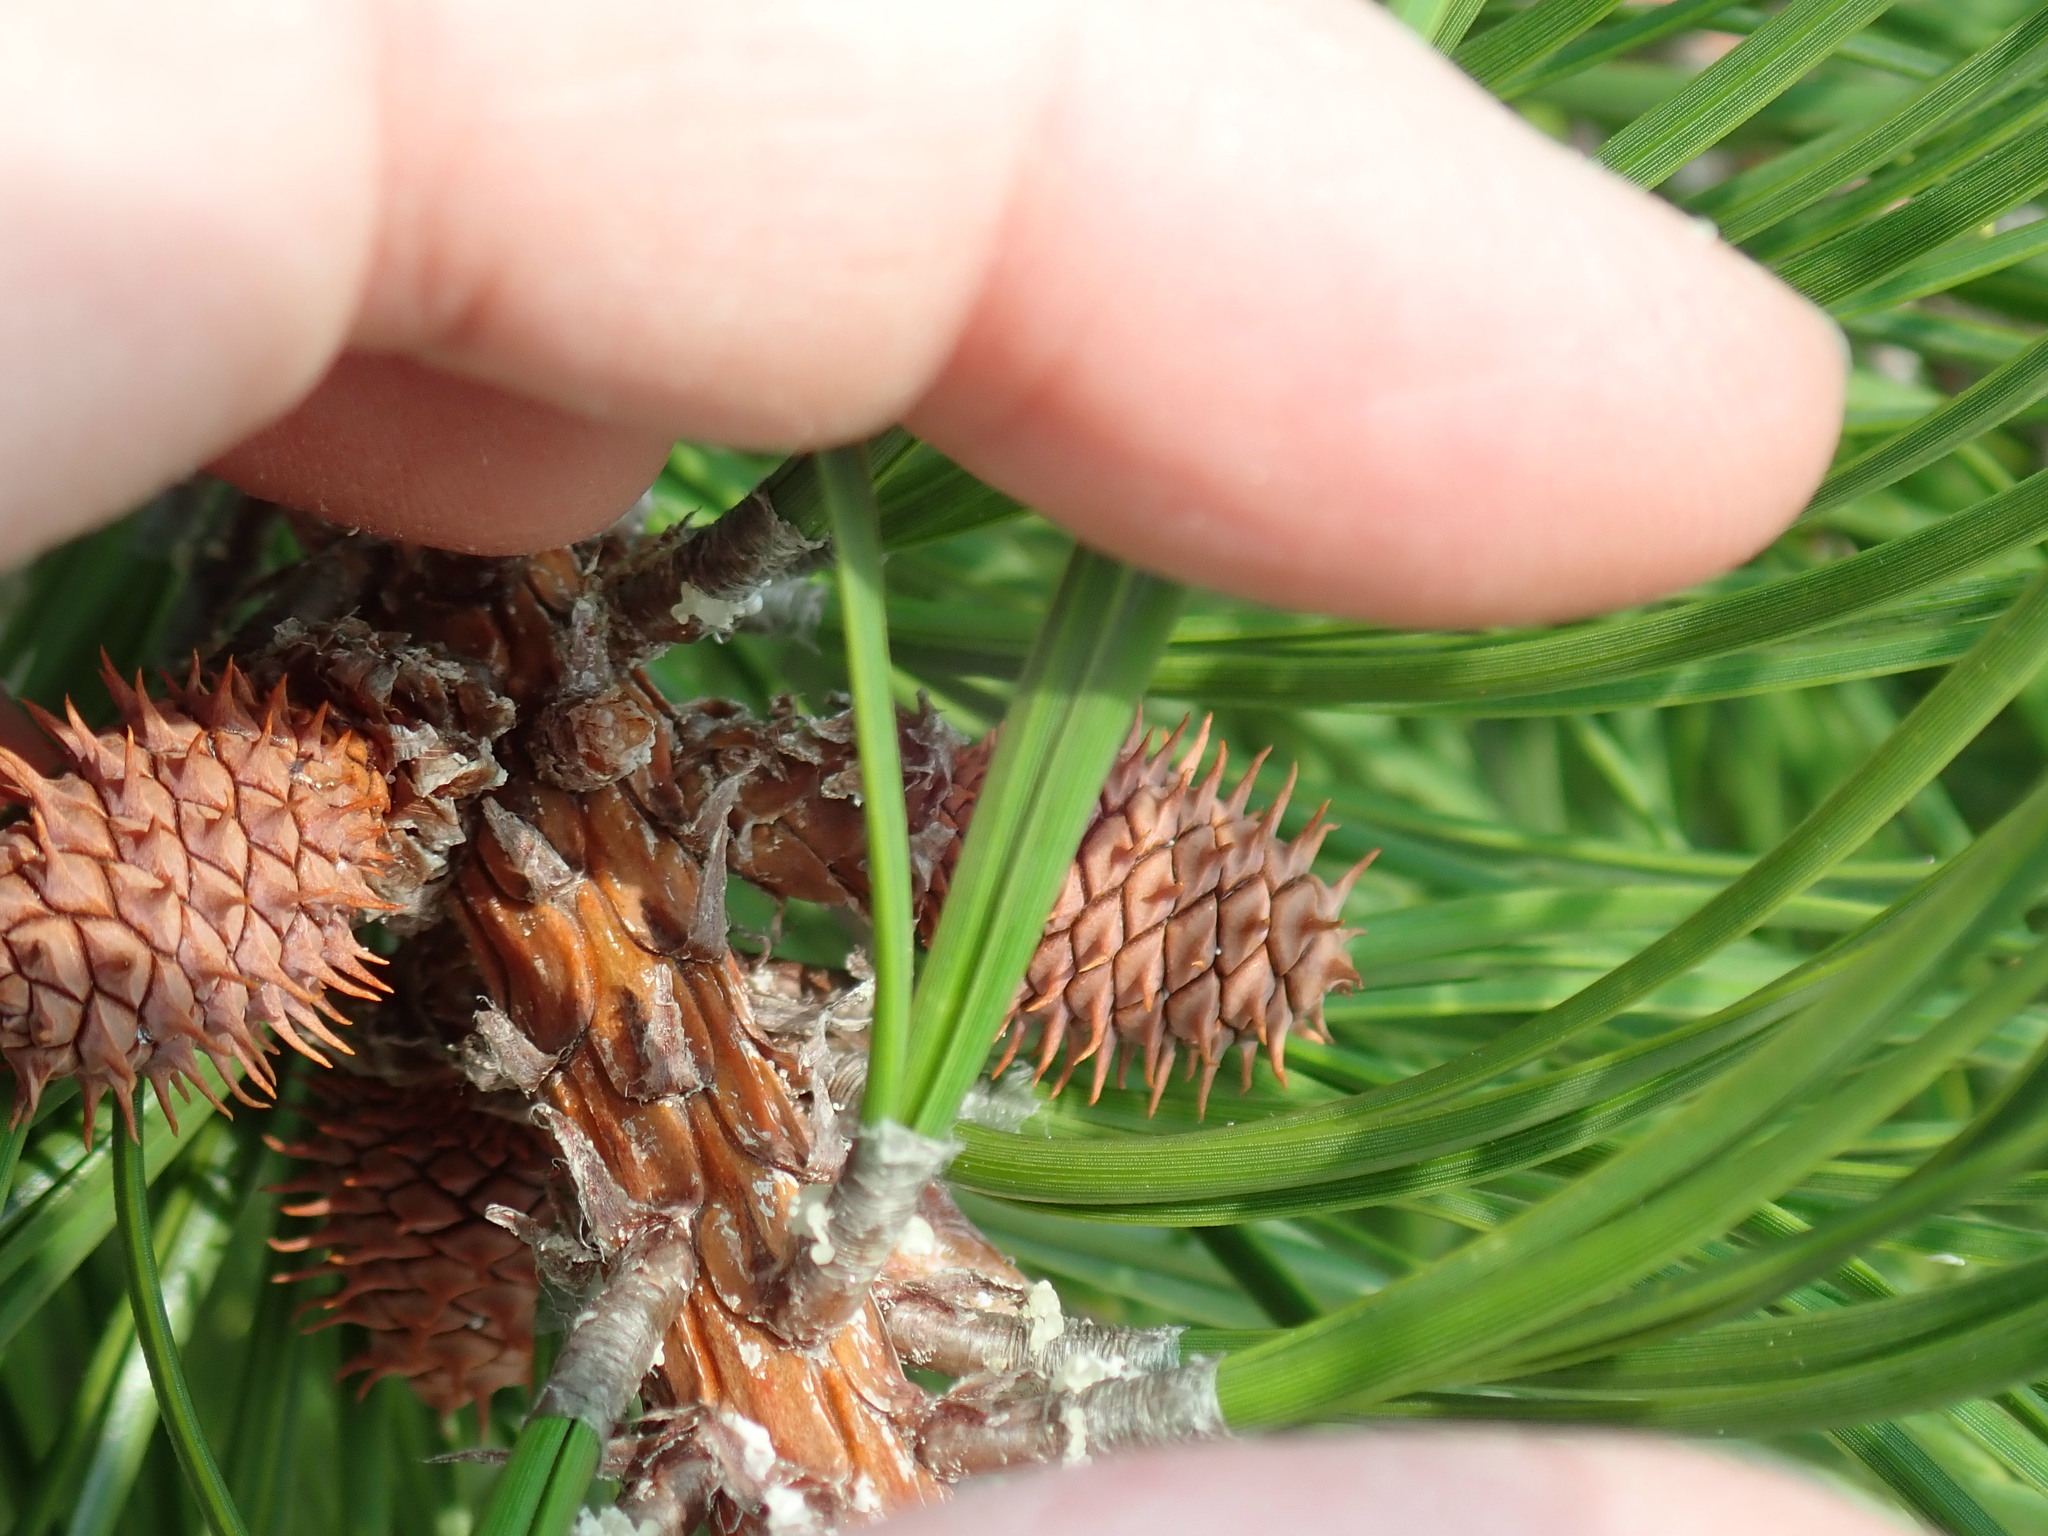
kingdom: Plantae
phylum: Tracheophyta
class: Pinopsida
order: Pinales
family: Pinaceae
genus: Pinus
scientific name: Pinus rigida
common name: Pitch pine
